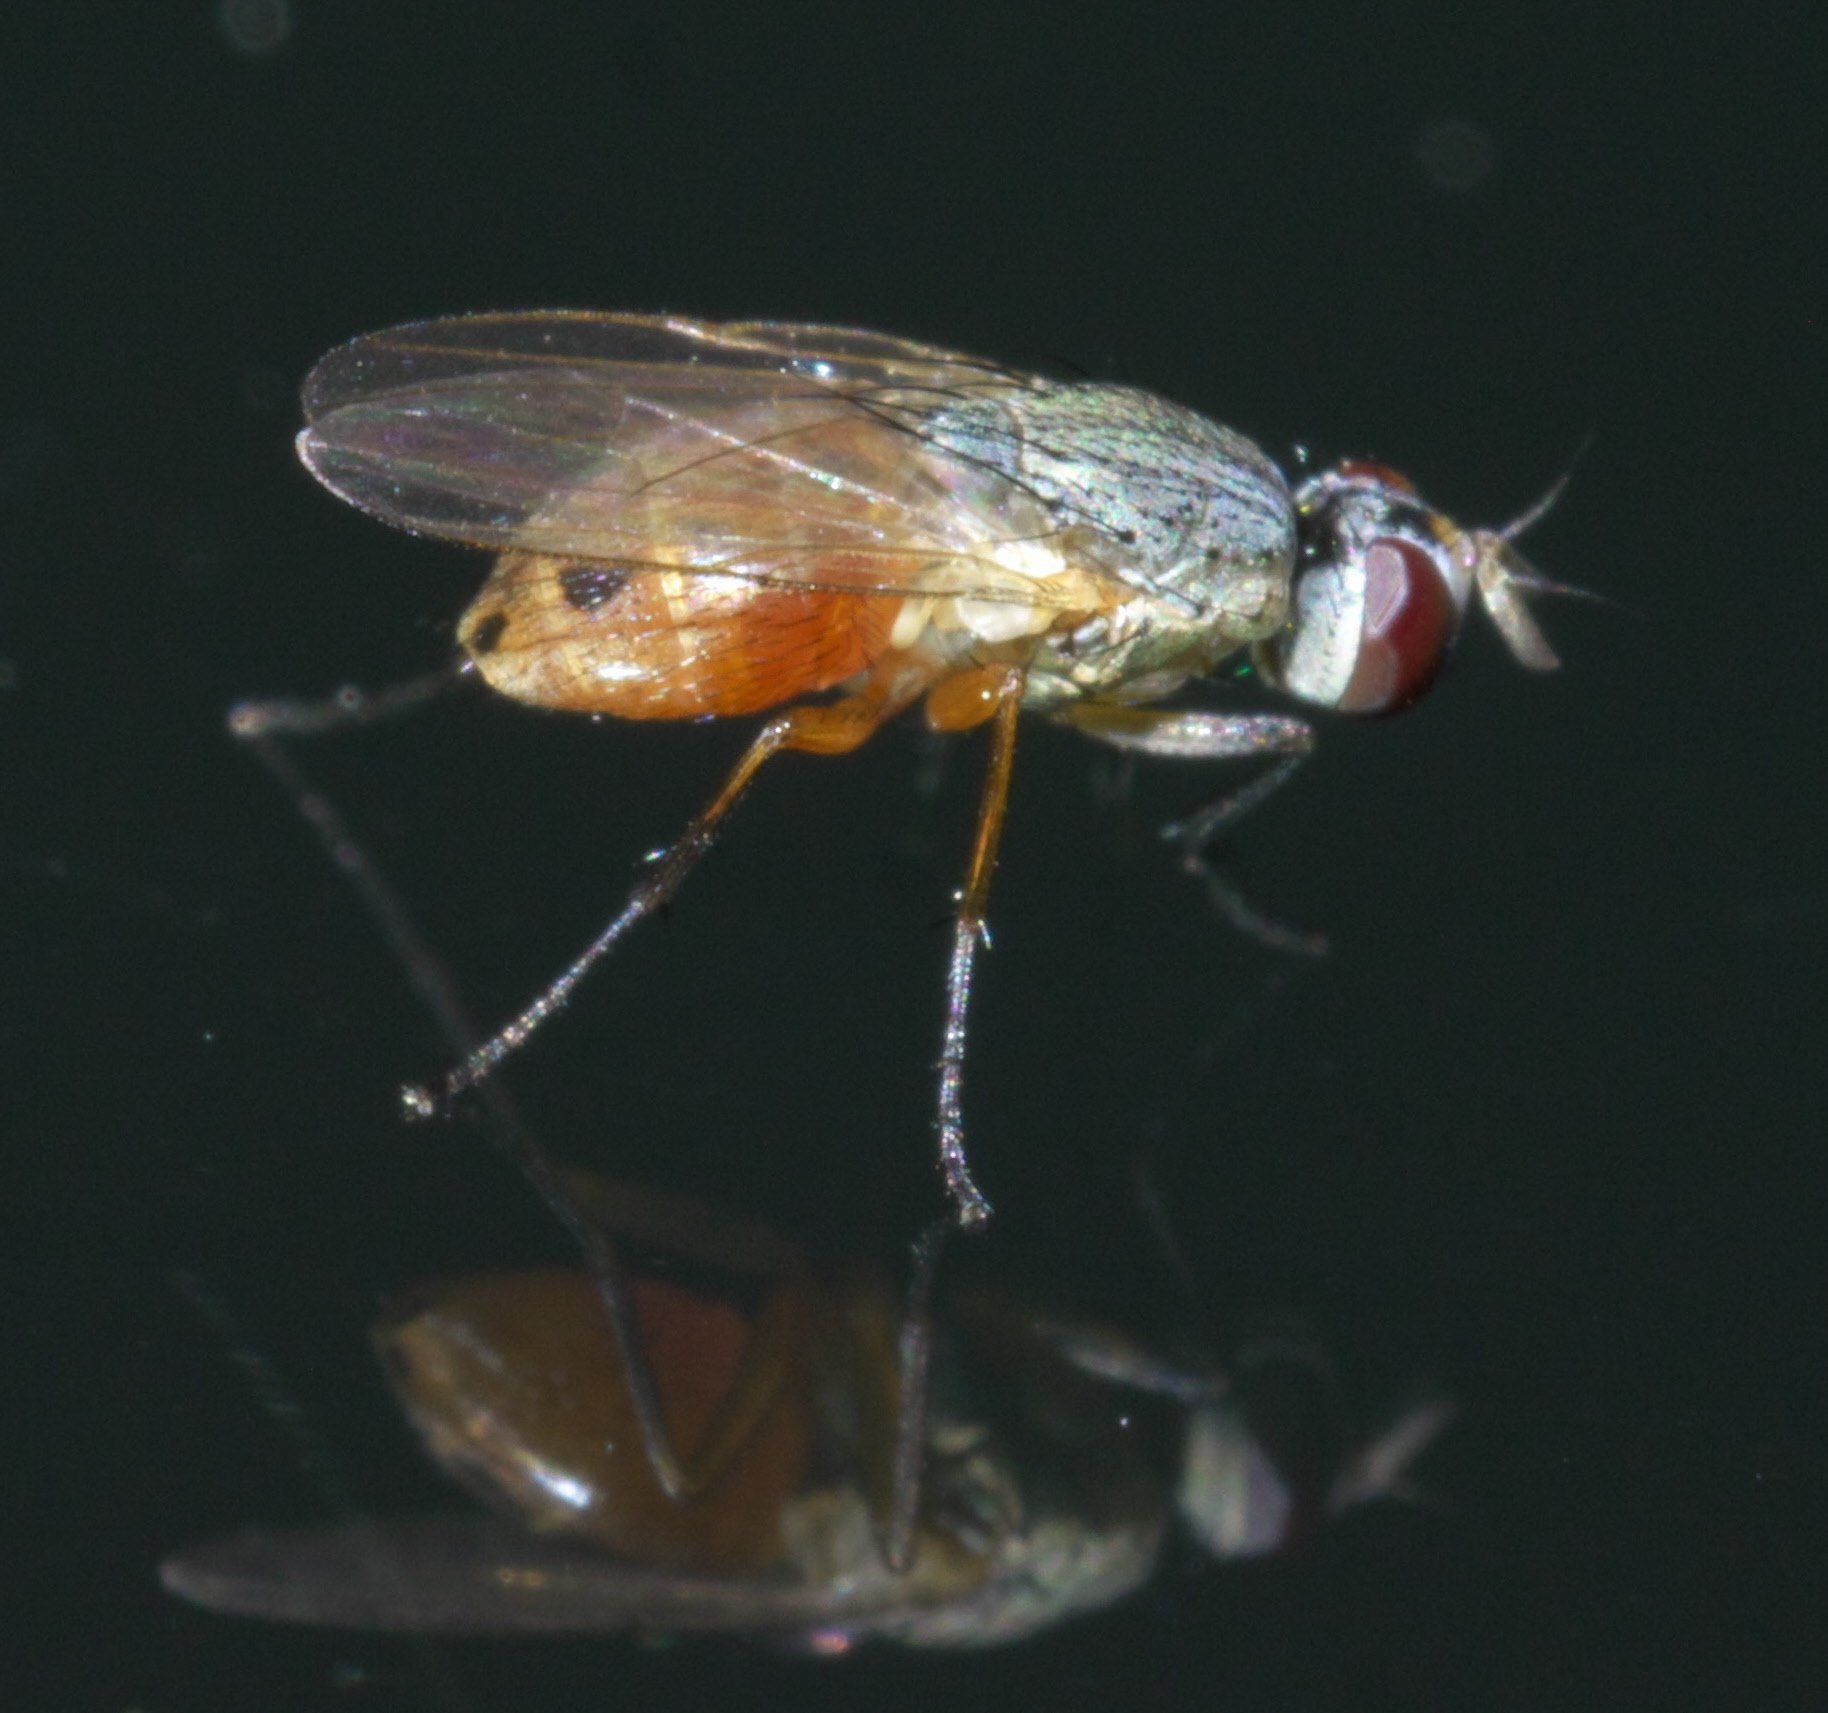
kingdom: Animalia
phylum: Arthropoda
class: Insecta
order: Diptera
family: Muscidae
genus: Atherigona
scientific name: Atherigona reversura
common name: Bermudagrass stem maggot
